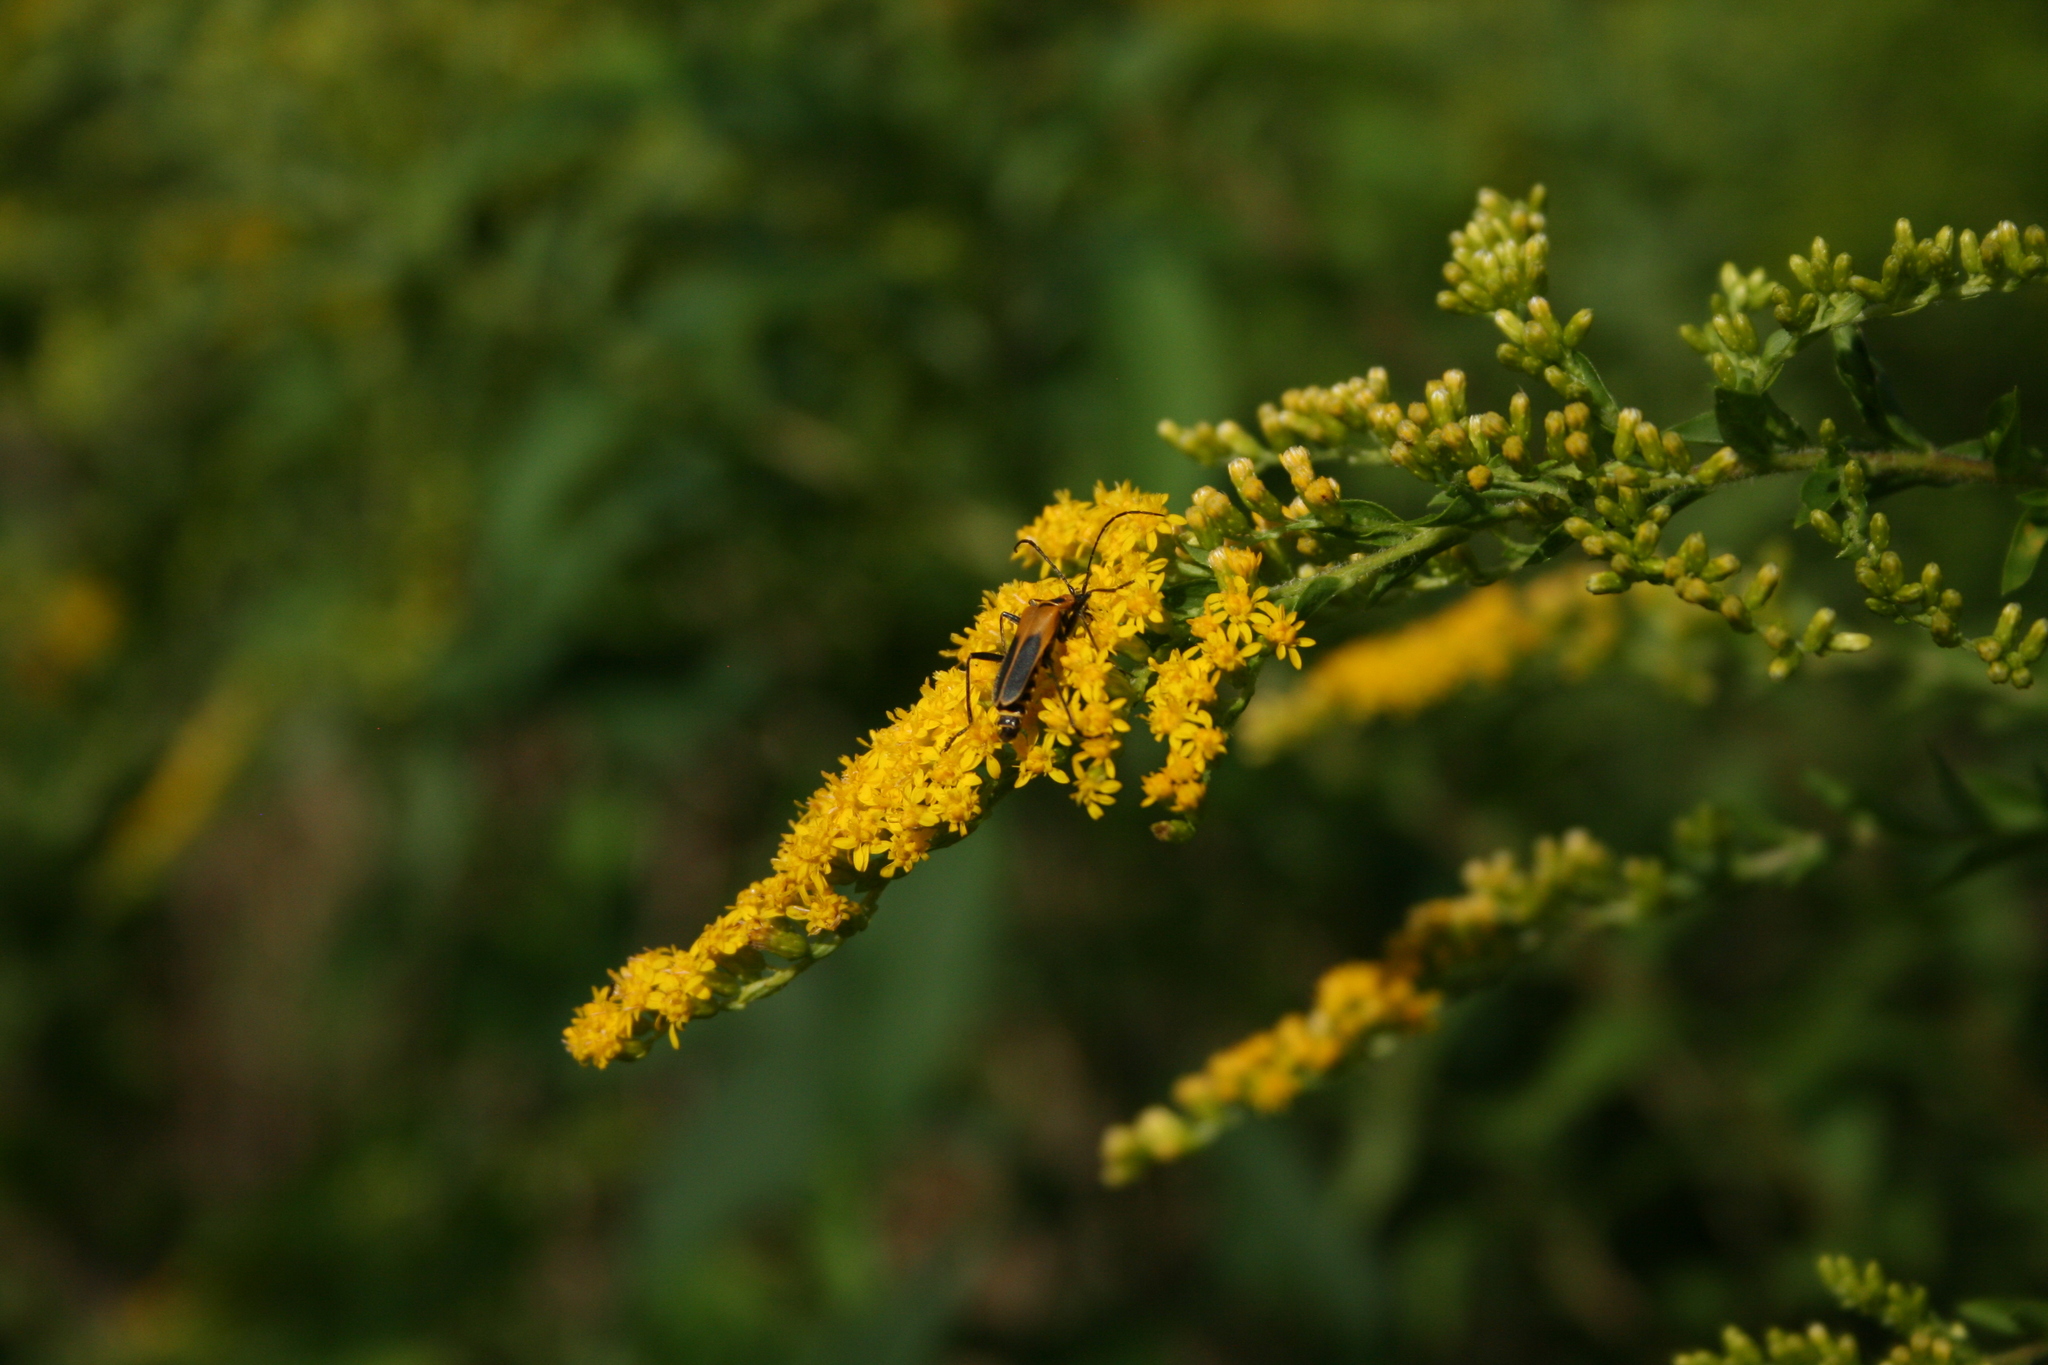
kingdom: Animalia
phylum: Arthropoda
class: Insecta
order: Coleoptera
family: Cantharidae
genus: Chauliognathus
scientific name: Chauliognathus pensylvanicus
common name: Goldenrod soldier beetle
